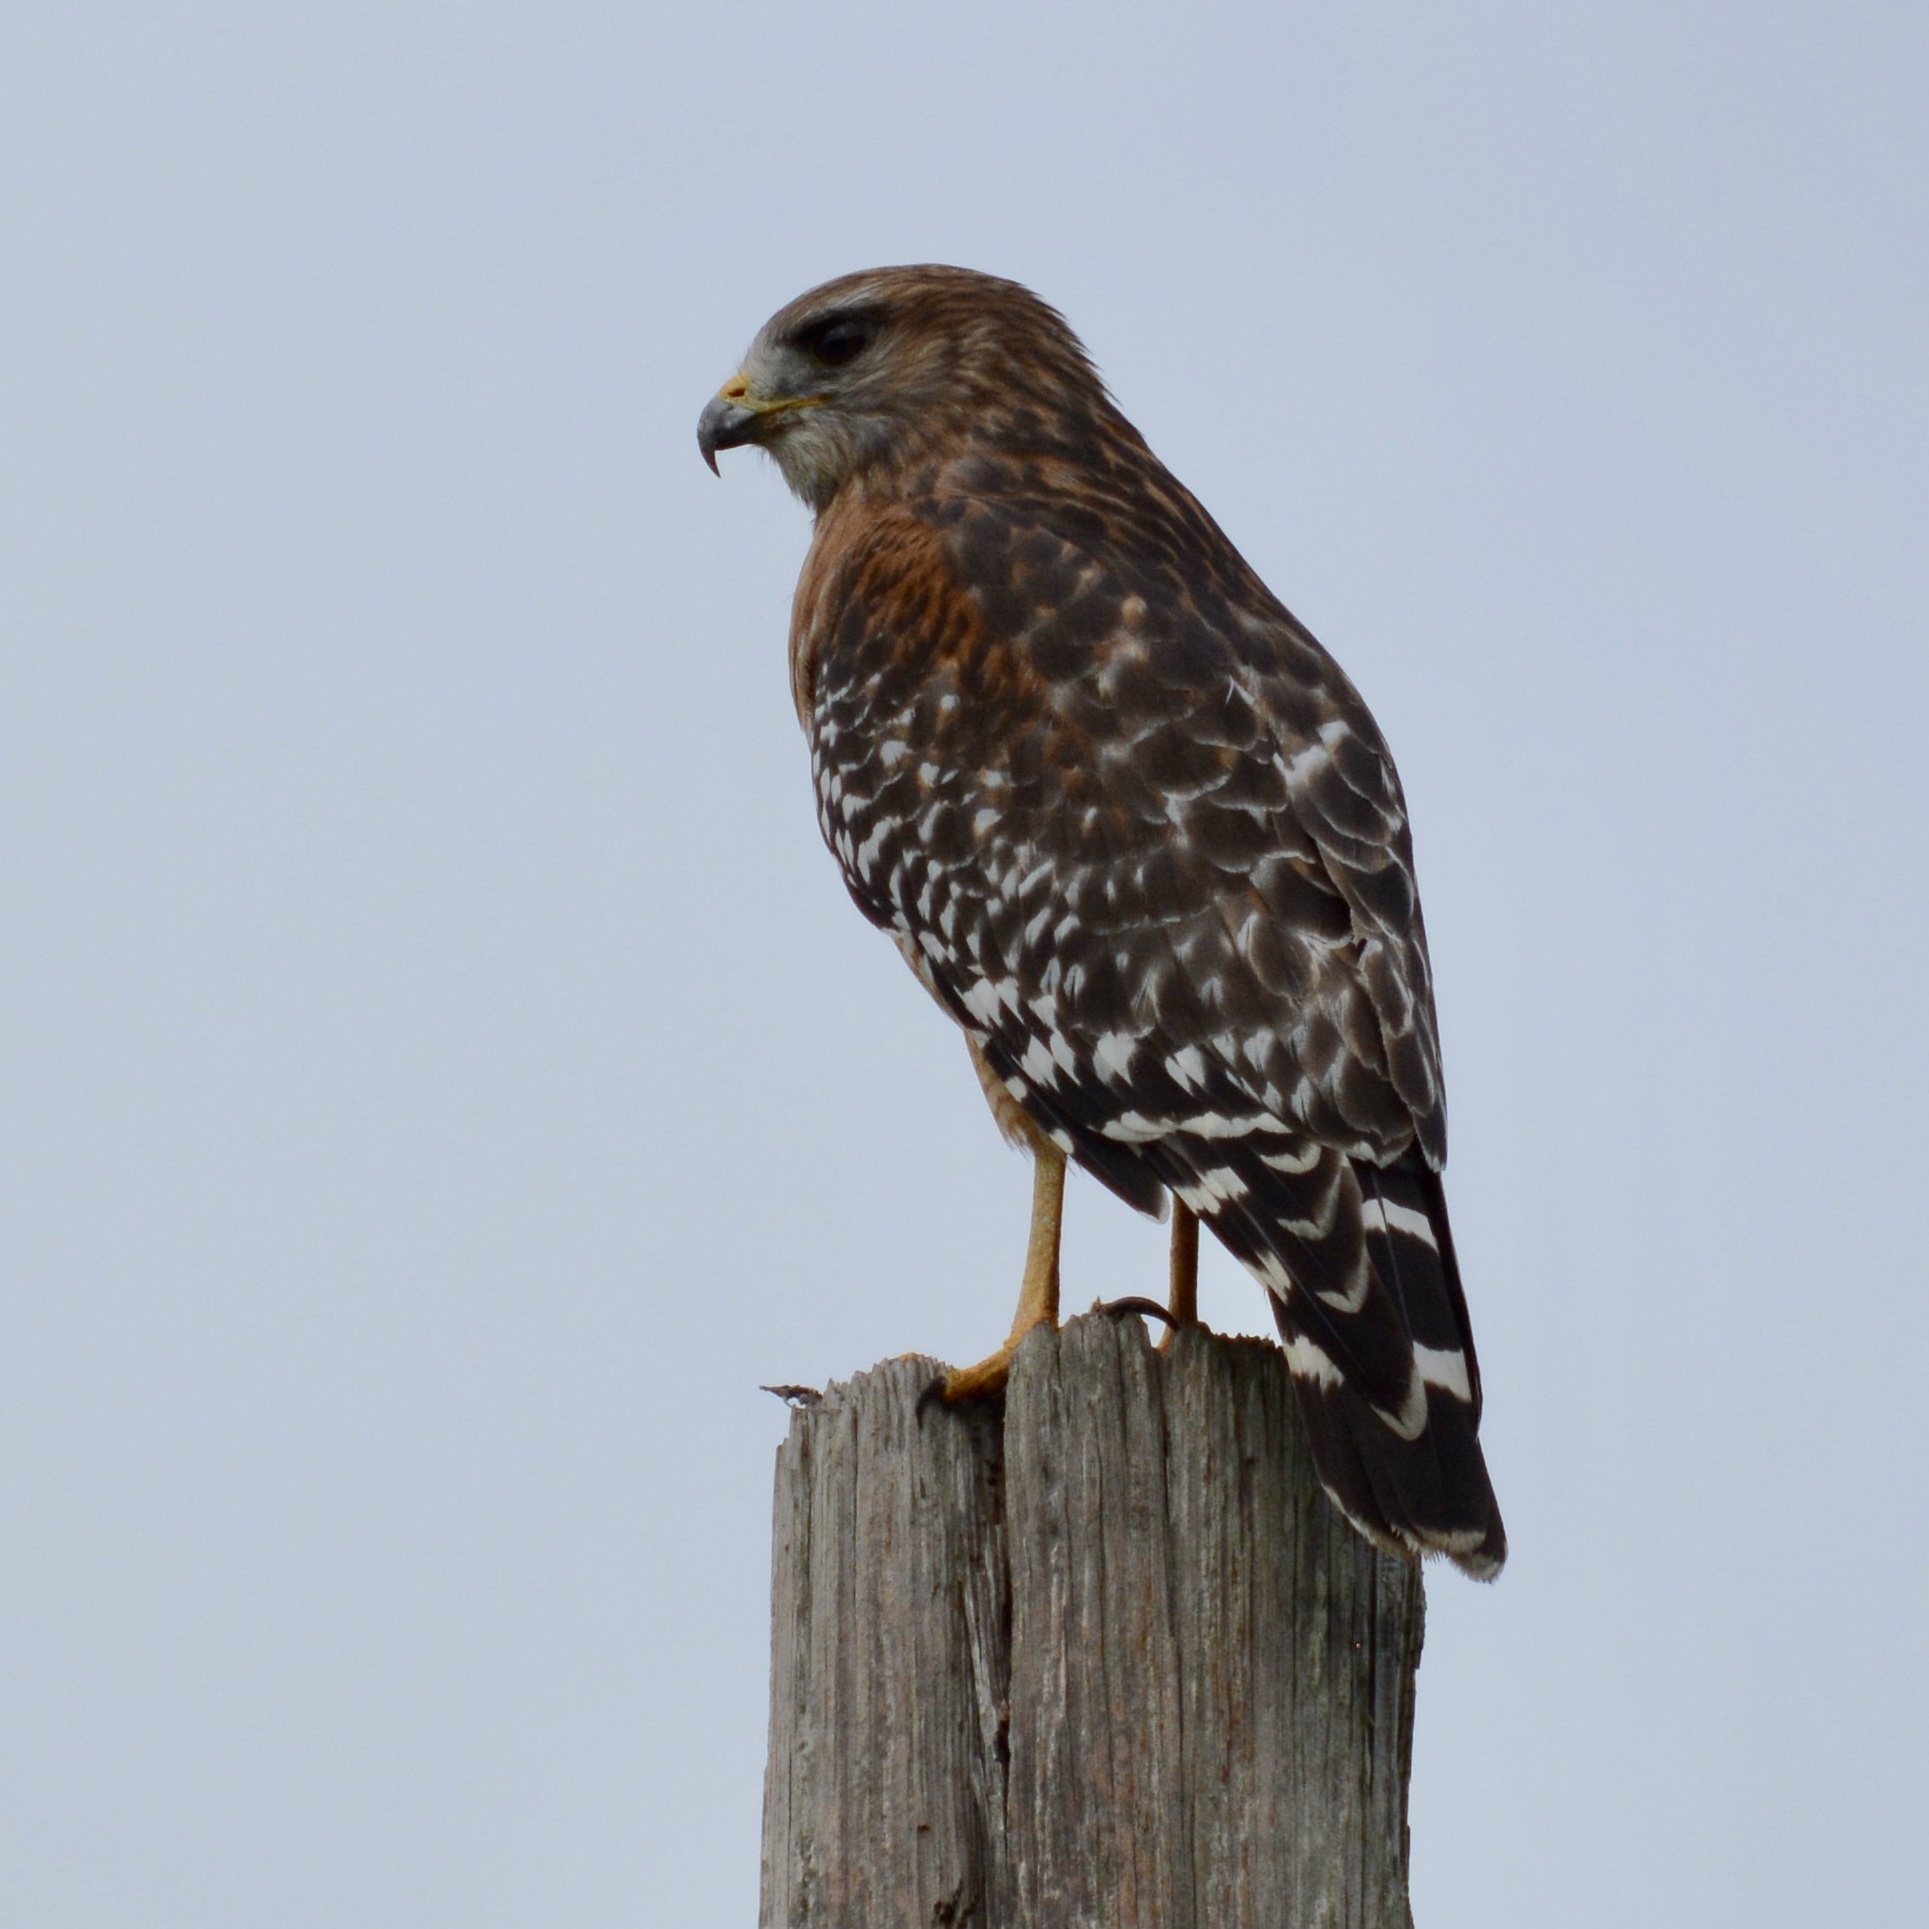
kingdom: Animalia
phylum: Chordata
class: Aves
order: Accipitriformes
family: Accipitridae
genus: Buteo
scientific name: Buteo lineatus
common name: Red-shouldered hawk
